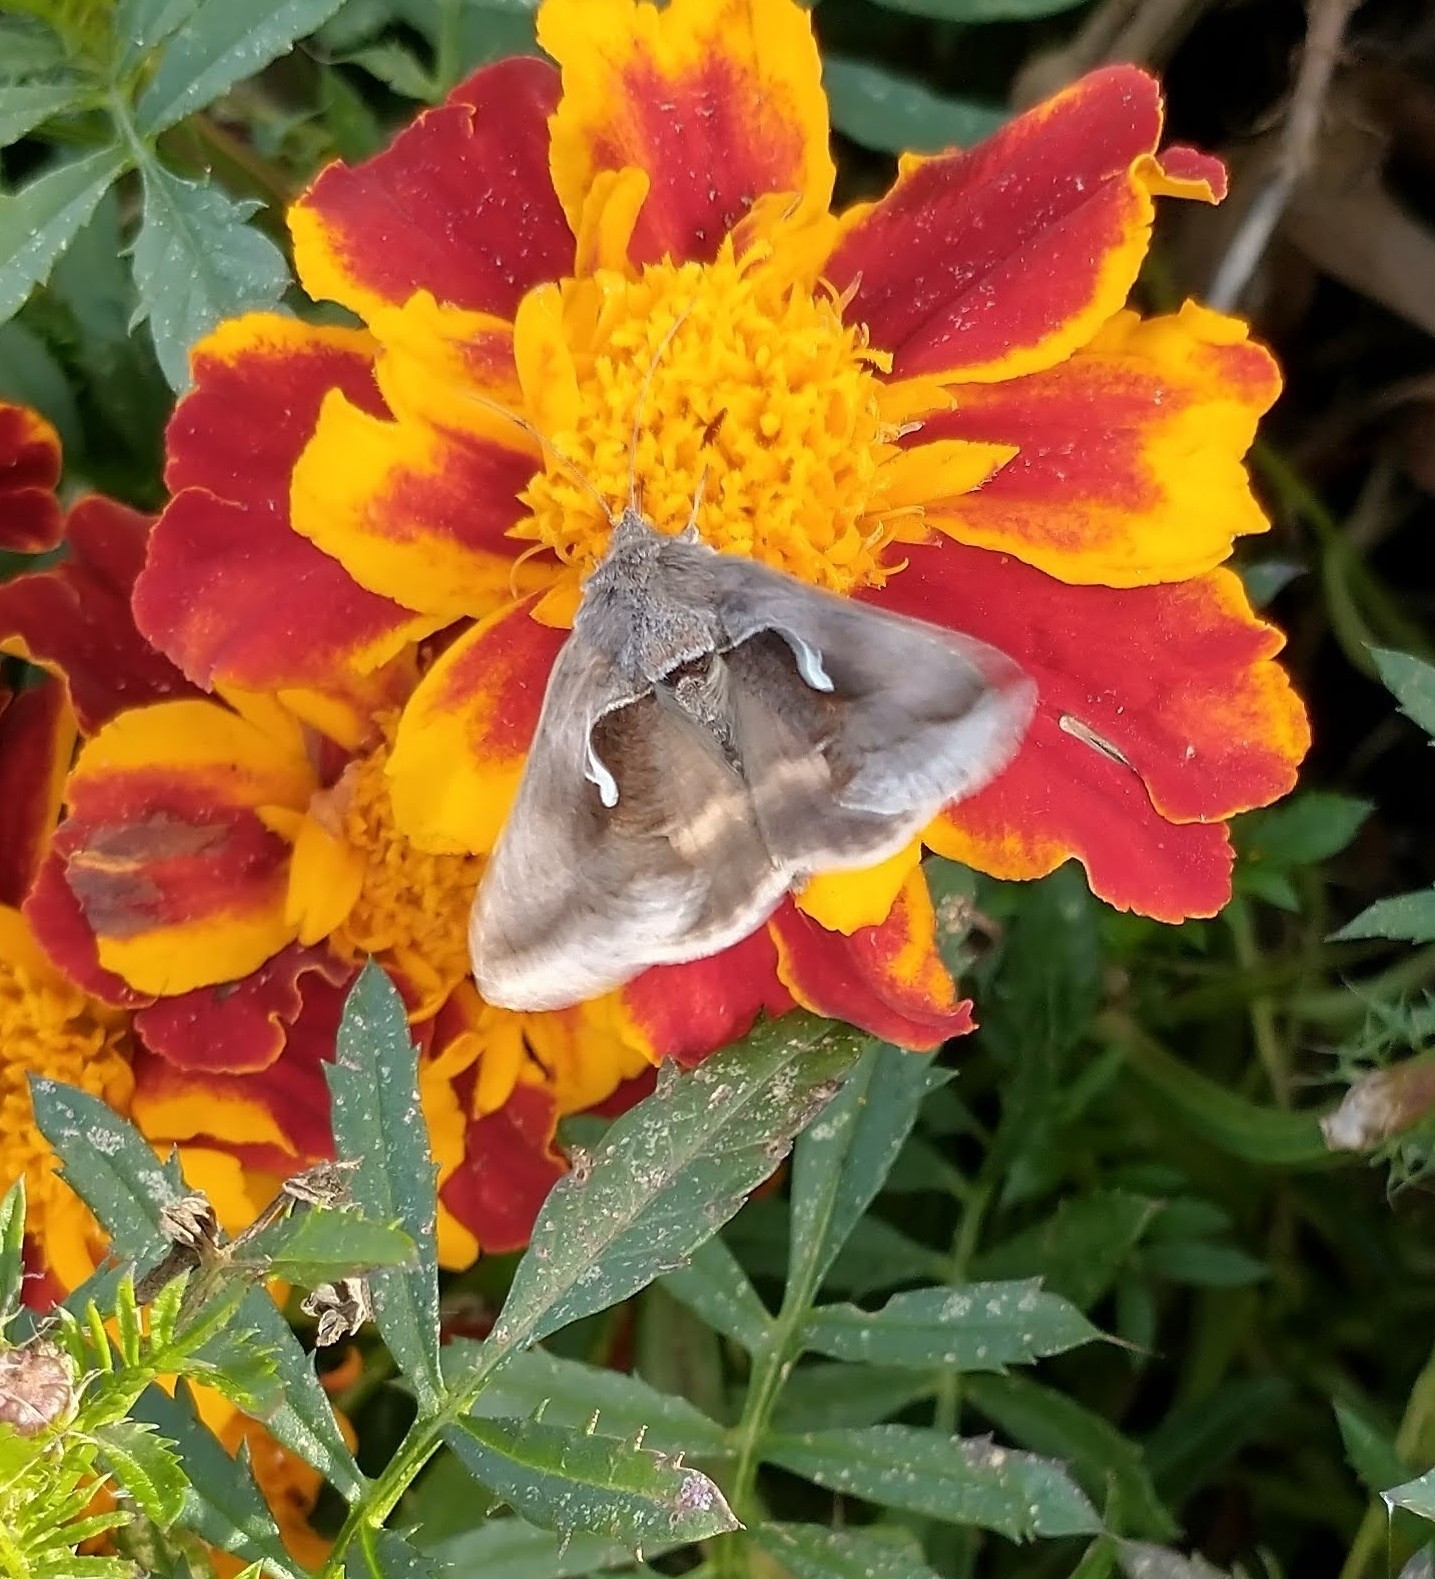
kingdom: Animalia
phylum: Arthropoda
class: Insecta
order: Lepidoptera
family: Noctuidae
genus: Anagrapha
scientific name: Anagrapha falcifera
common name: Celery looper
